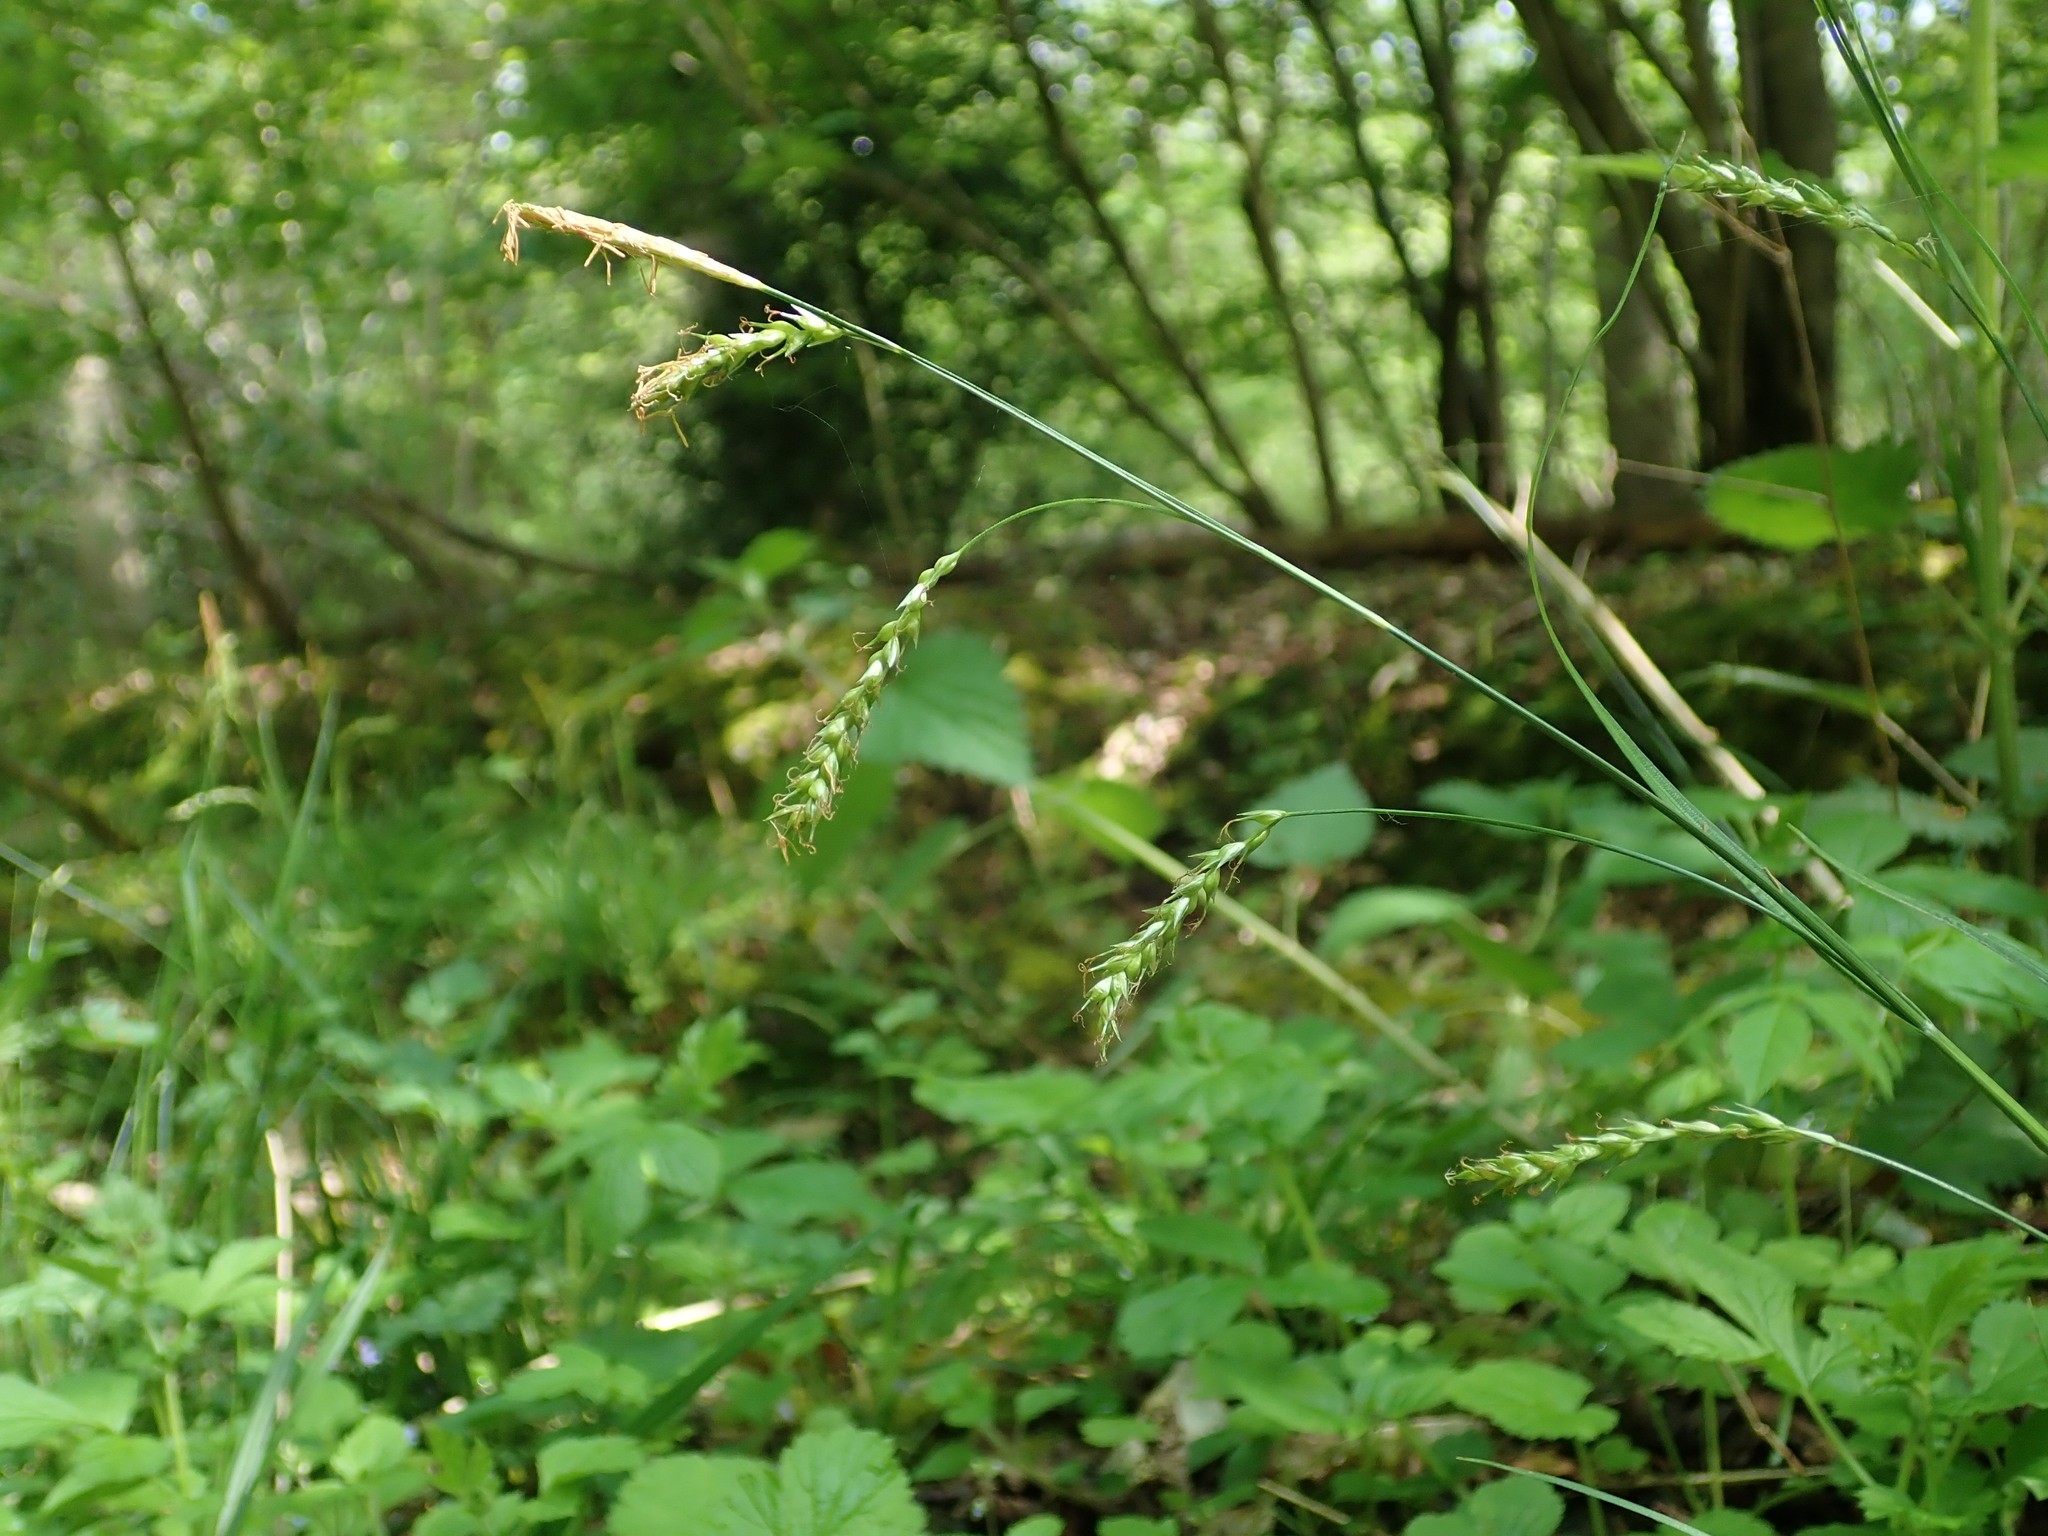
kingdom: Plantae
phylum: Tracheophyta
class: Liliopsida
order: Poales
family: Cyperaceae
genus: Carex
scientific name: Carex sylvatica
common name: Wood-sedge
